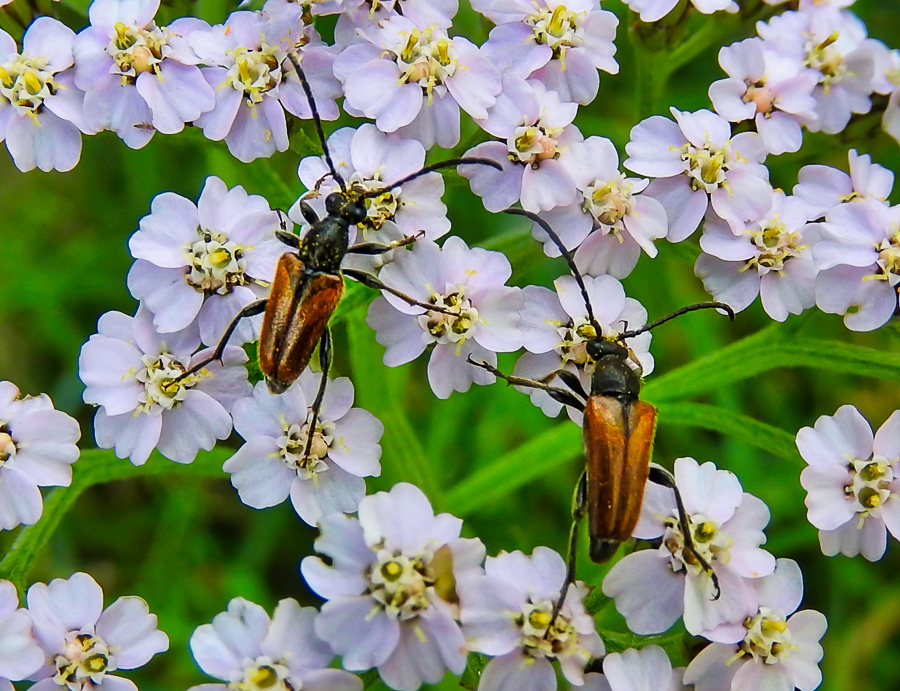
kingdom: Animalia
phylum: Arthropoda
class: Insecta
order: Coleoptera
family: Cerambycidae
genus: Pseudovadonia
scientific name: Pseudovadonia livida
